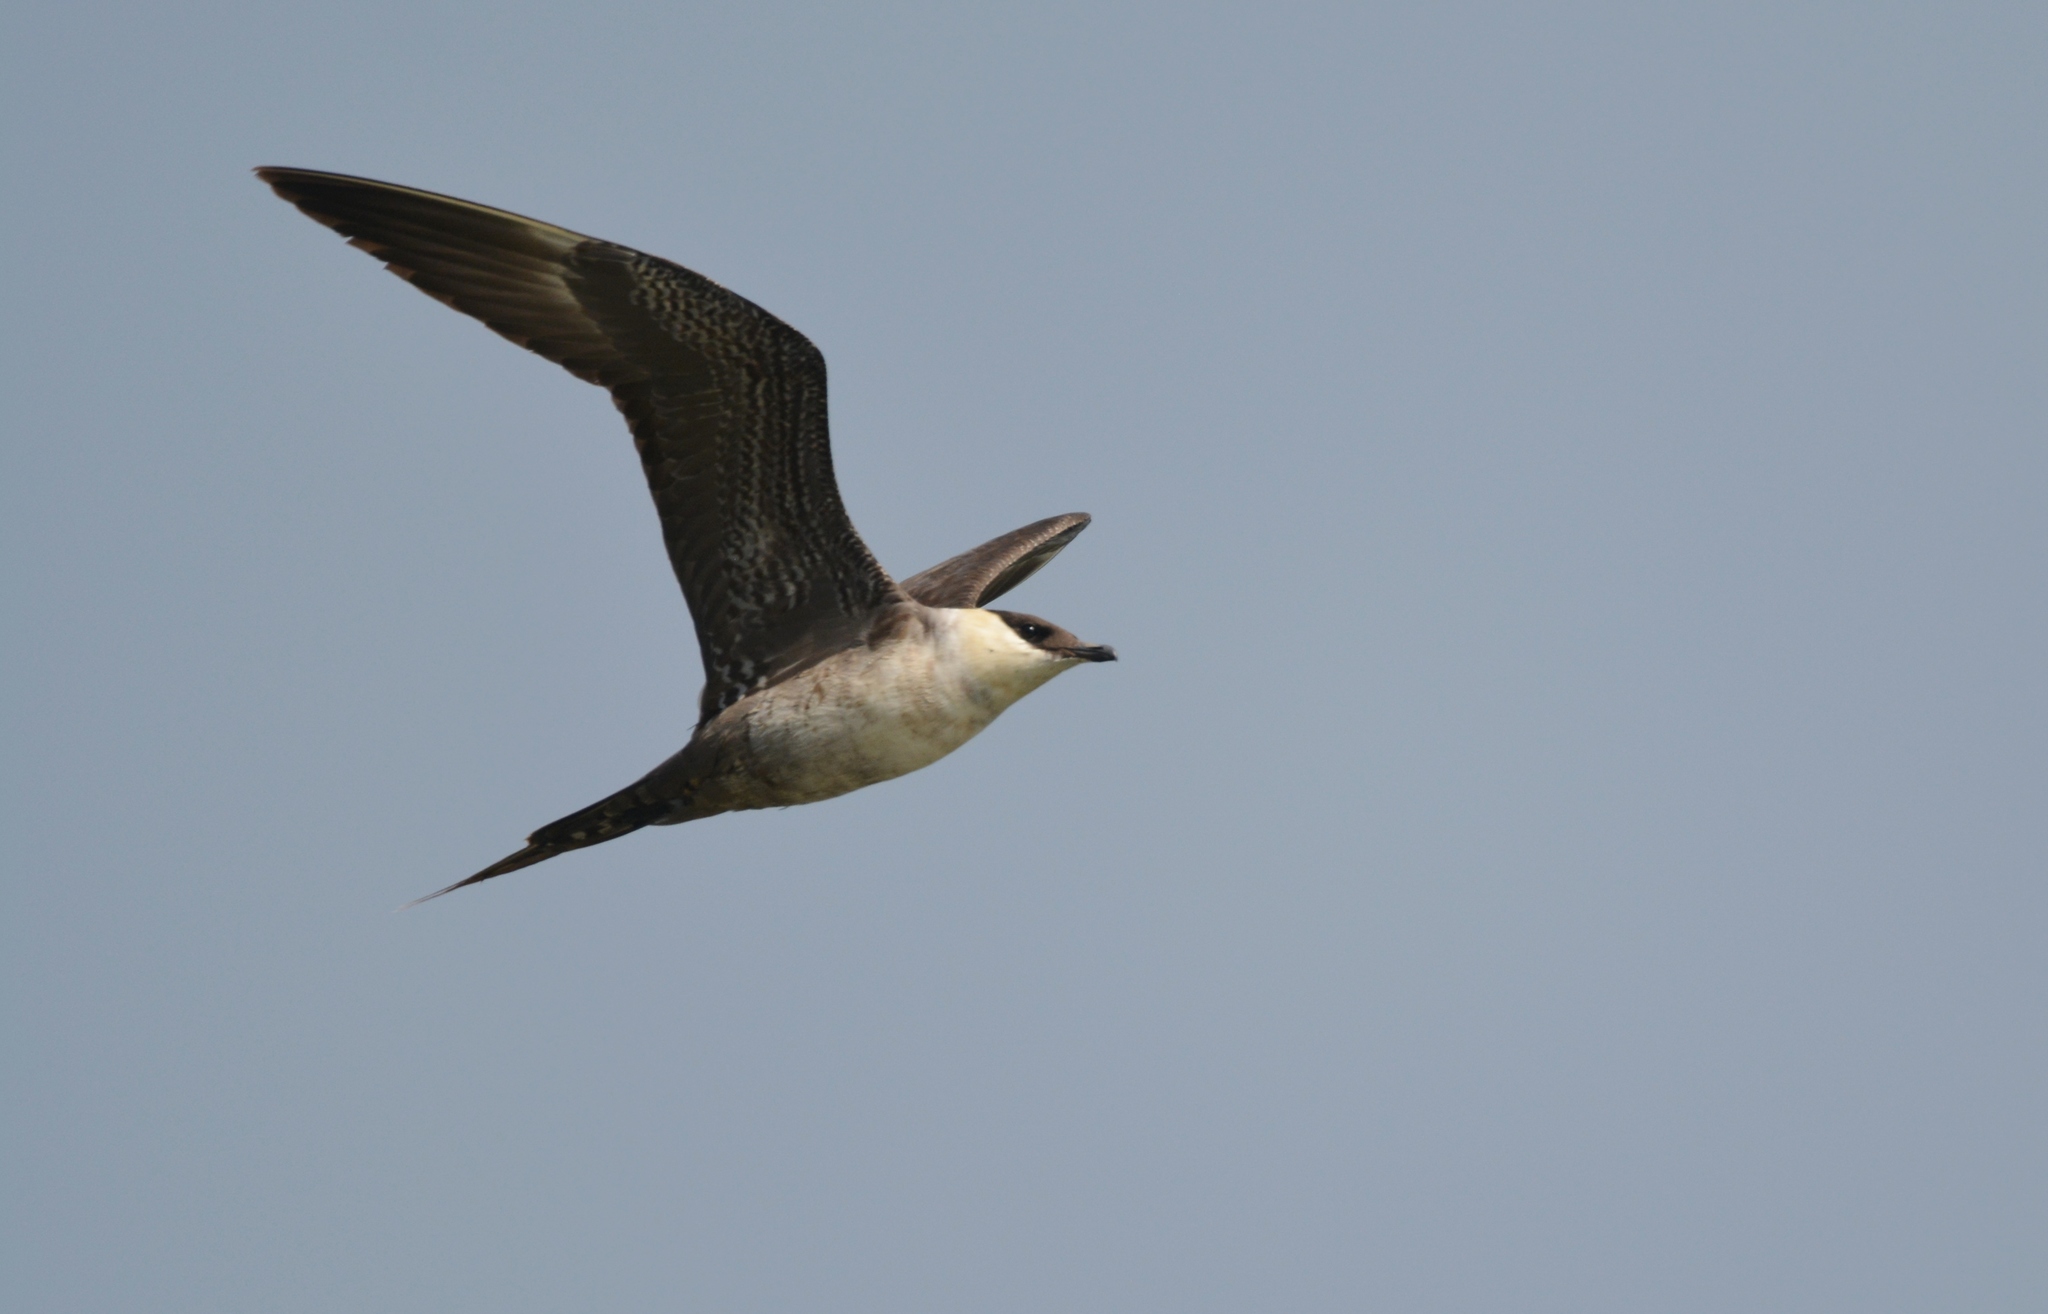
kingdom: Animalia
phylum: Chordata
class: Aves
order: Charadriiformes
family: Stercorariidae
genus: Stercorarius
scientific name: Stercorarius longicaudus
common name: Long-tailed jaeger
